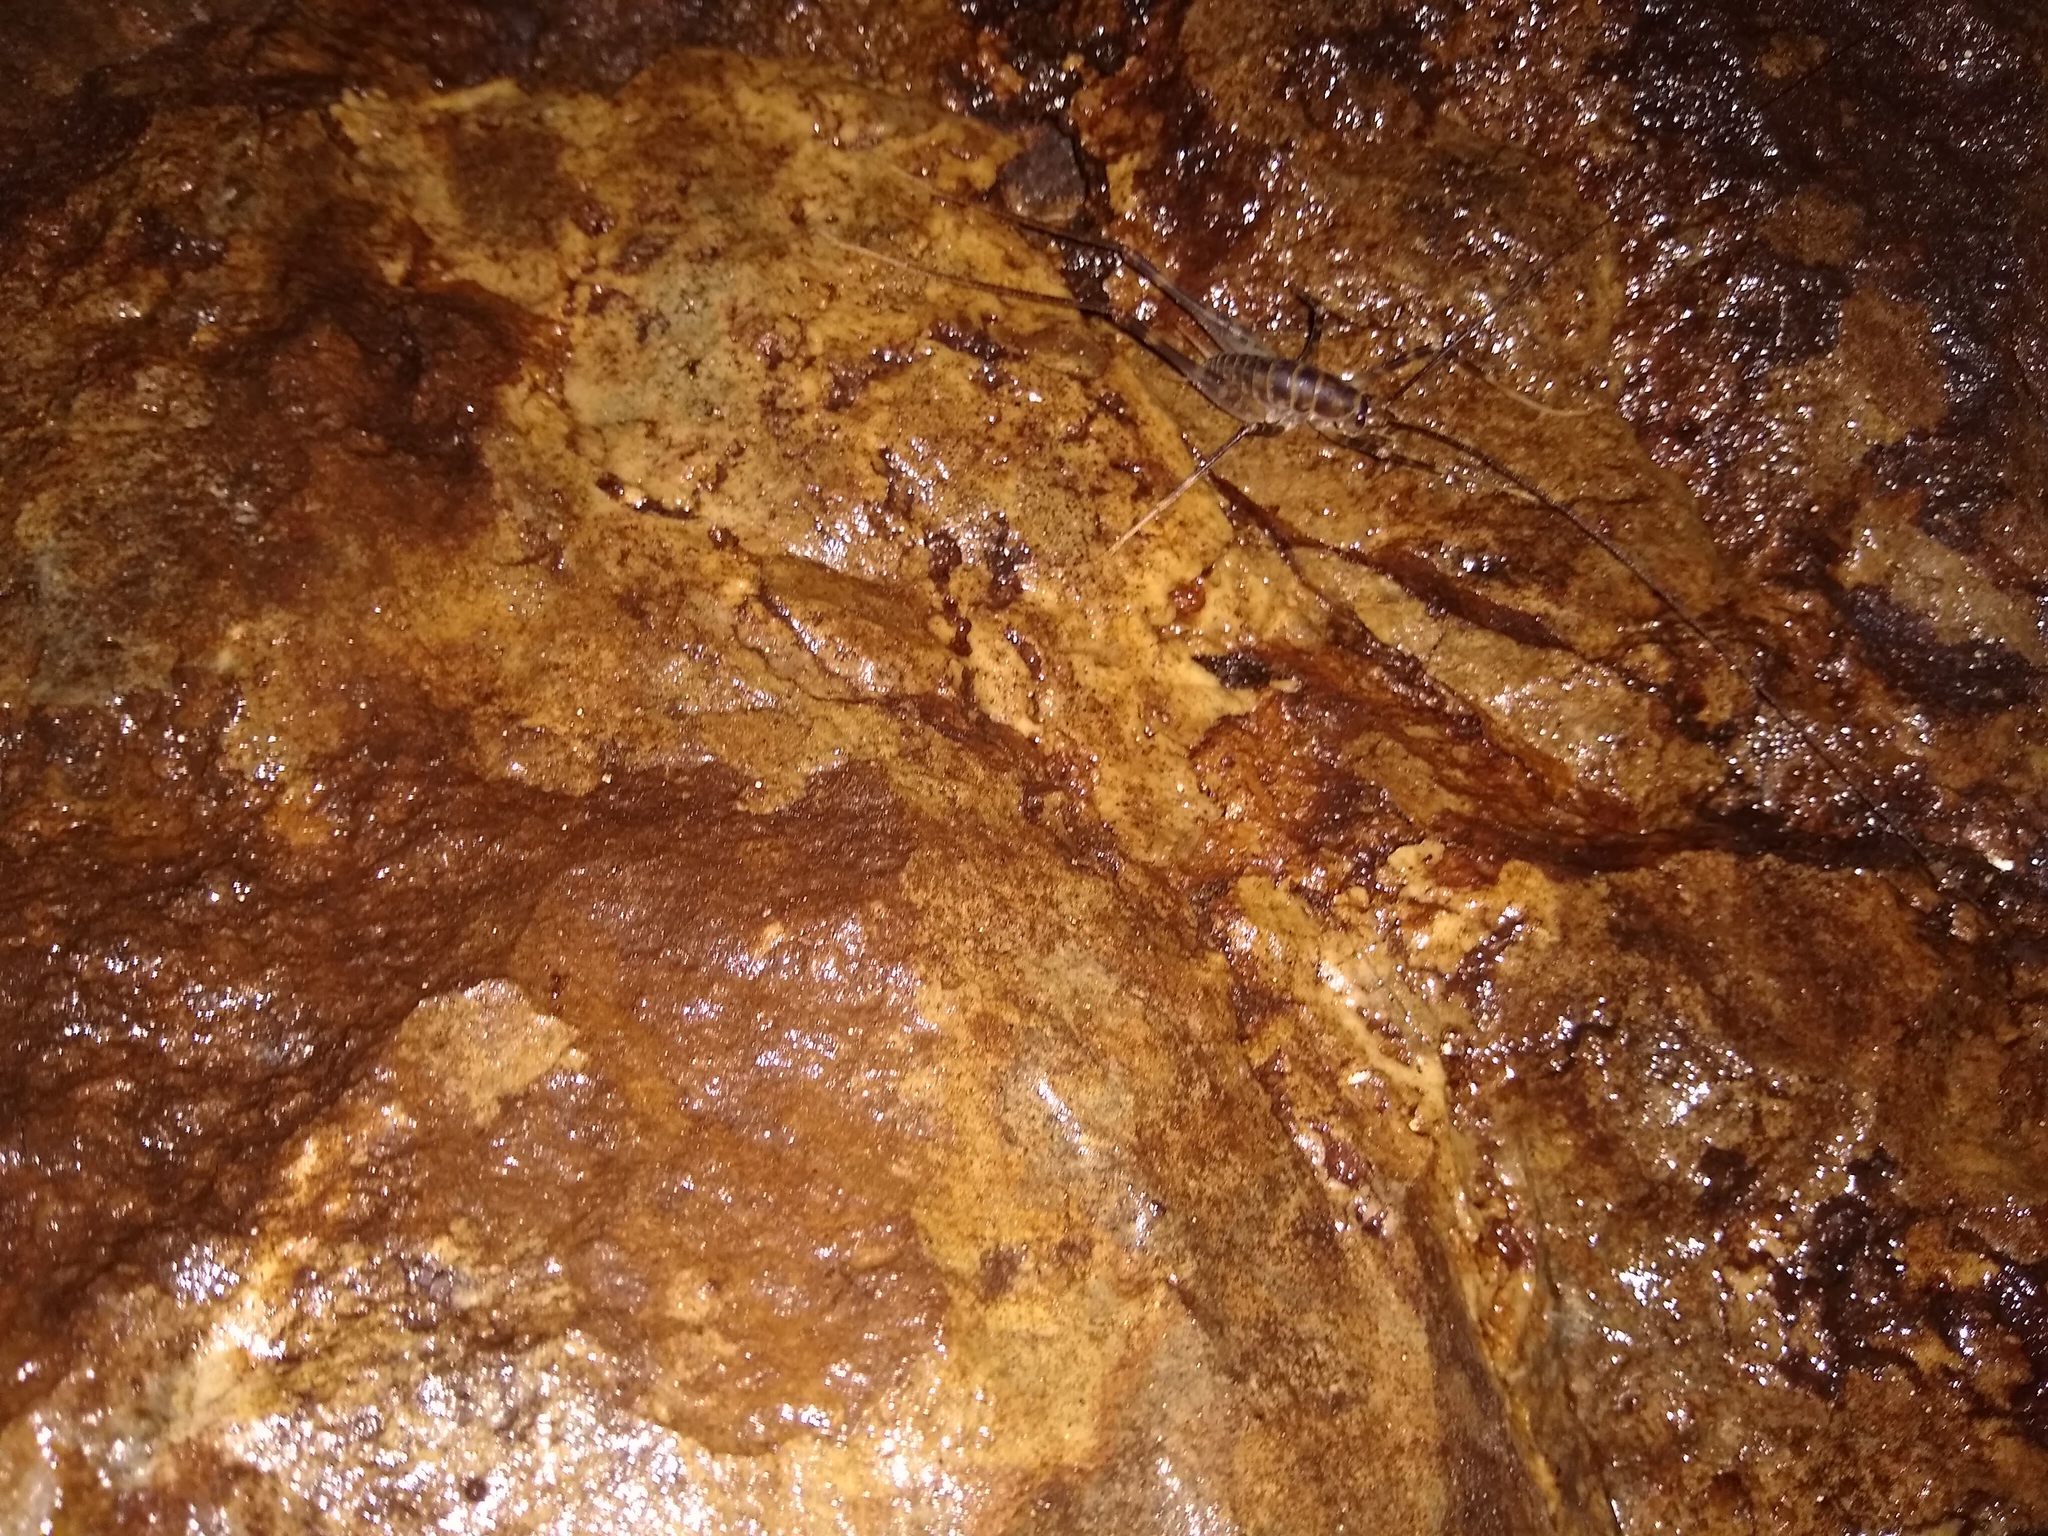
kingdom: Animalia
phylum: Arthropoda
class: Insecta
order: Orthoptera
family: Rhaphidophoridae
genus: Pachyrhamma
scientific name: Pachyrhamma acanthocera
